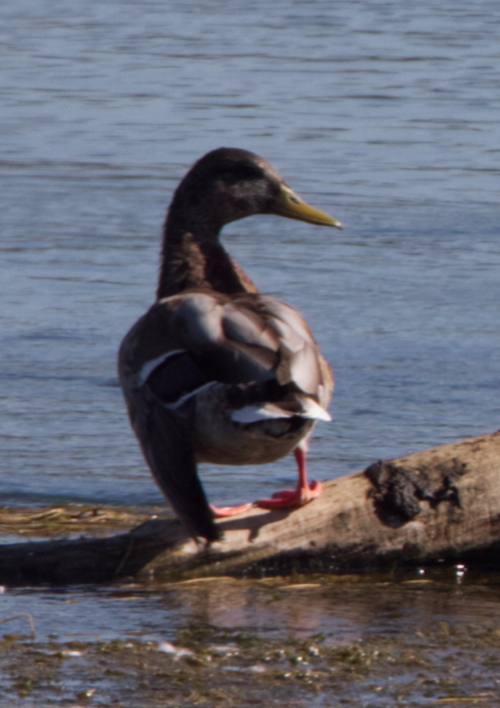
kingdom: Animalia
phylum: Chordata
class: Aves
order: Anseriformes
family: Anatidae
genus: Anas
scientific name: Anas platyrhynchos
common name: Mallard
